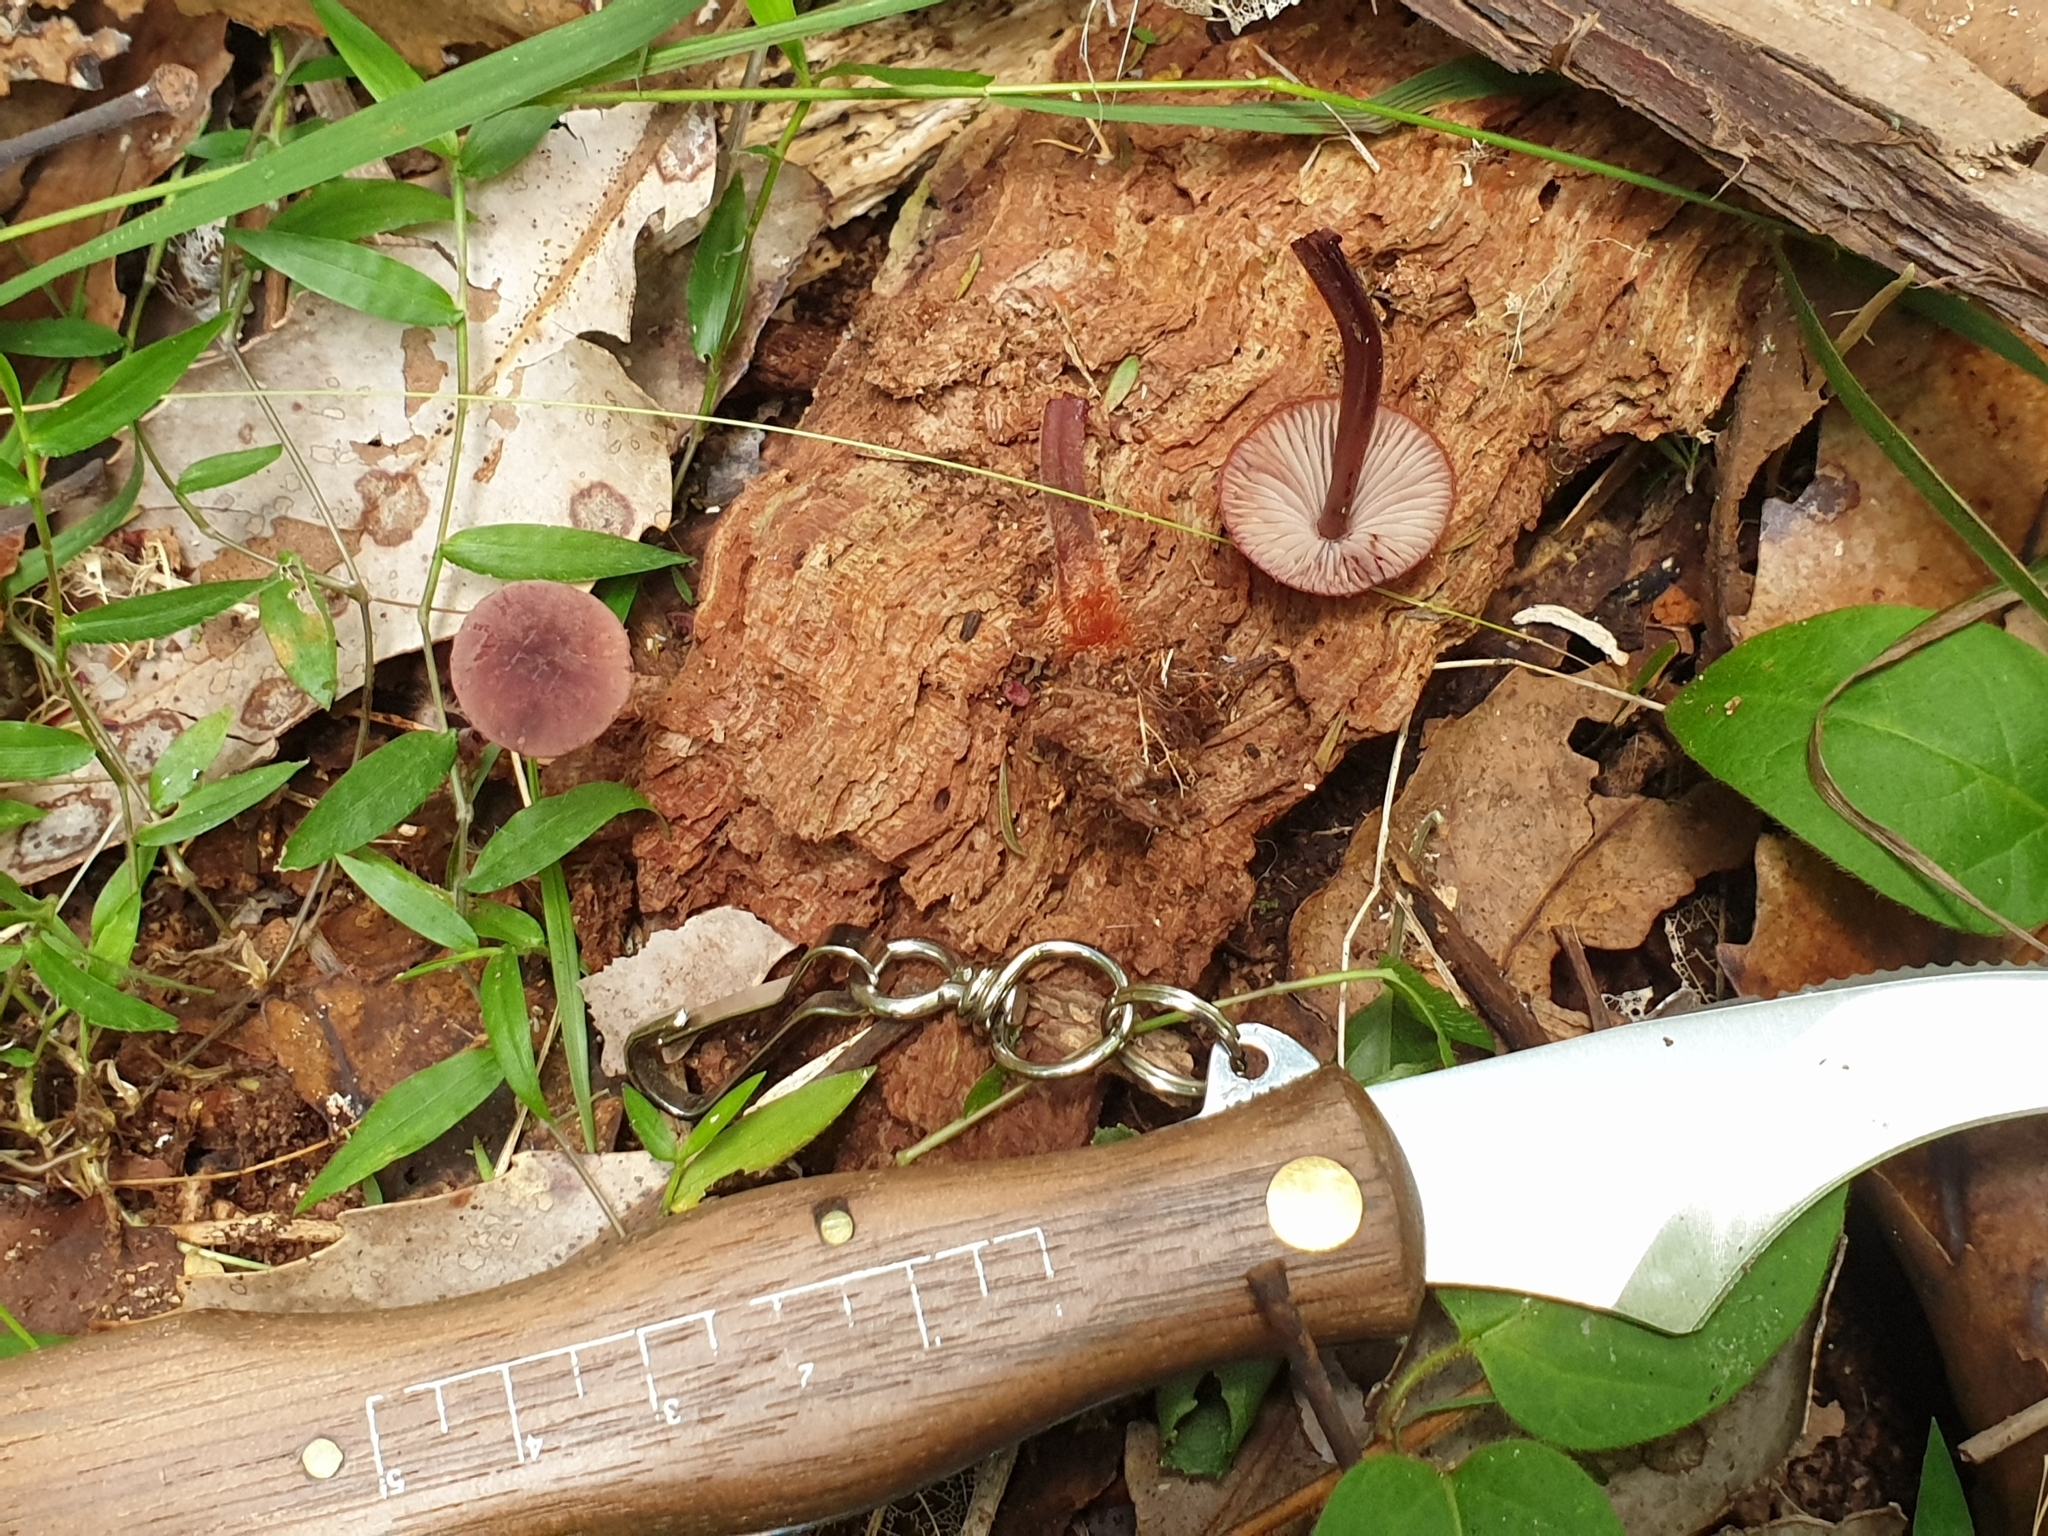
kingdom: Fungi
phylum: Basidiomycota
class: Agaricomycetes
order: Agaricales
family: Mycenaceae
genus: Mycena
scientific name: Mycena mariae
